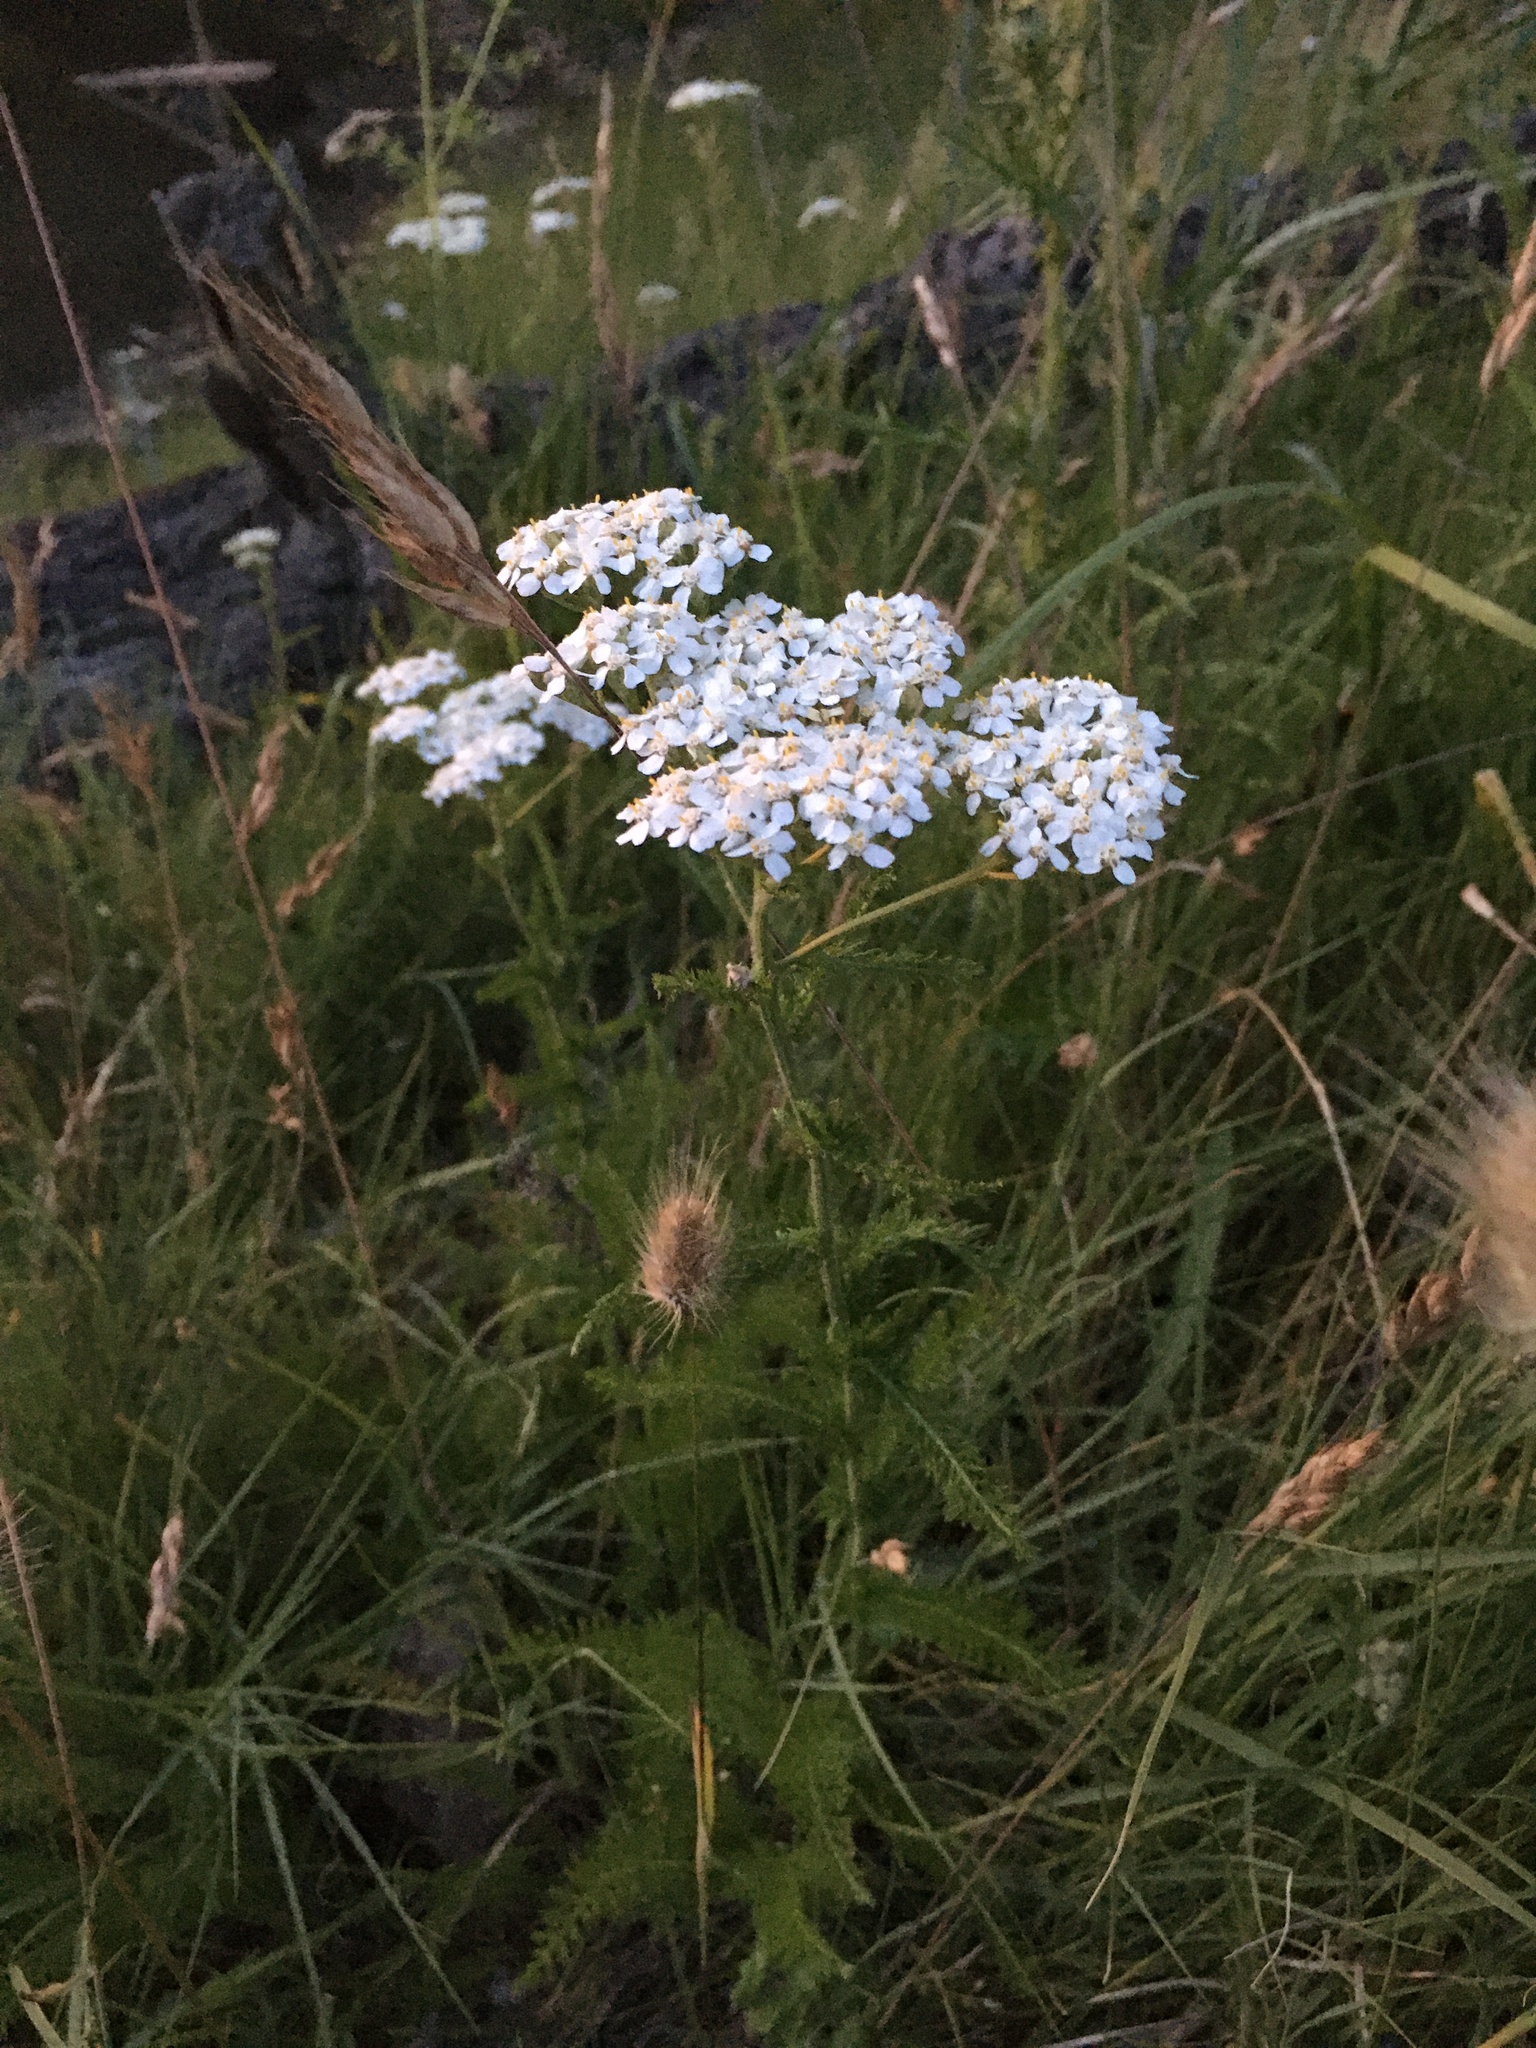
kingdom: Plantae
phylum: Tracheophyta
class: Magnoliopsida
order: Asterales
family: Asteraceae
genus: Achillea
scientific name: Achillea millefolium
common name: Yarrow
